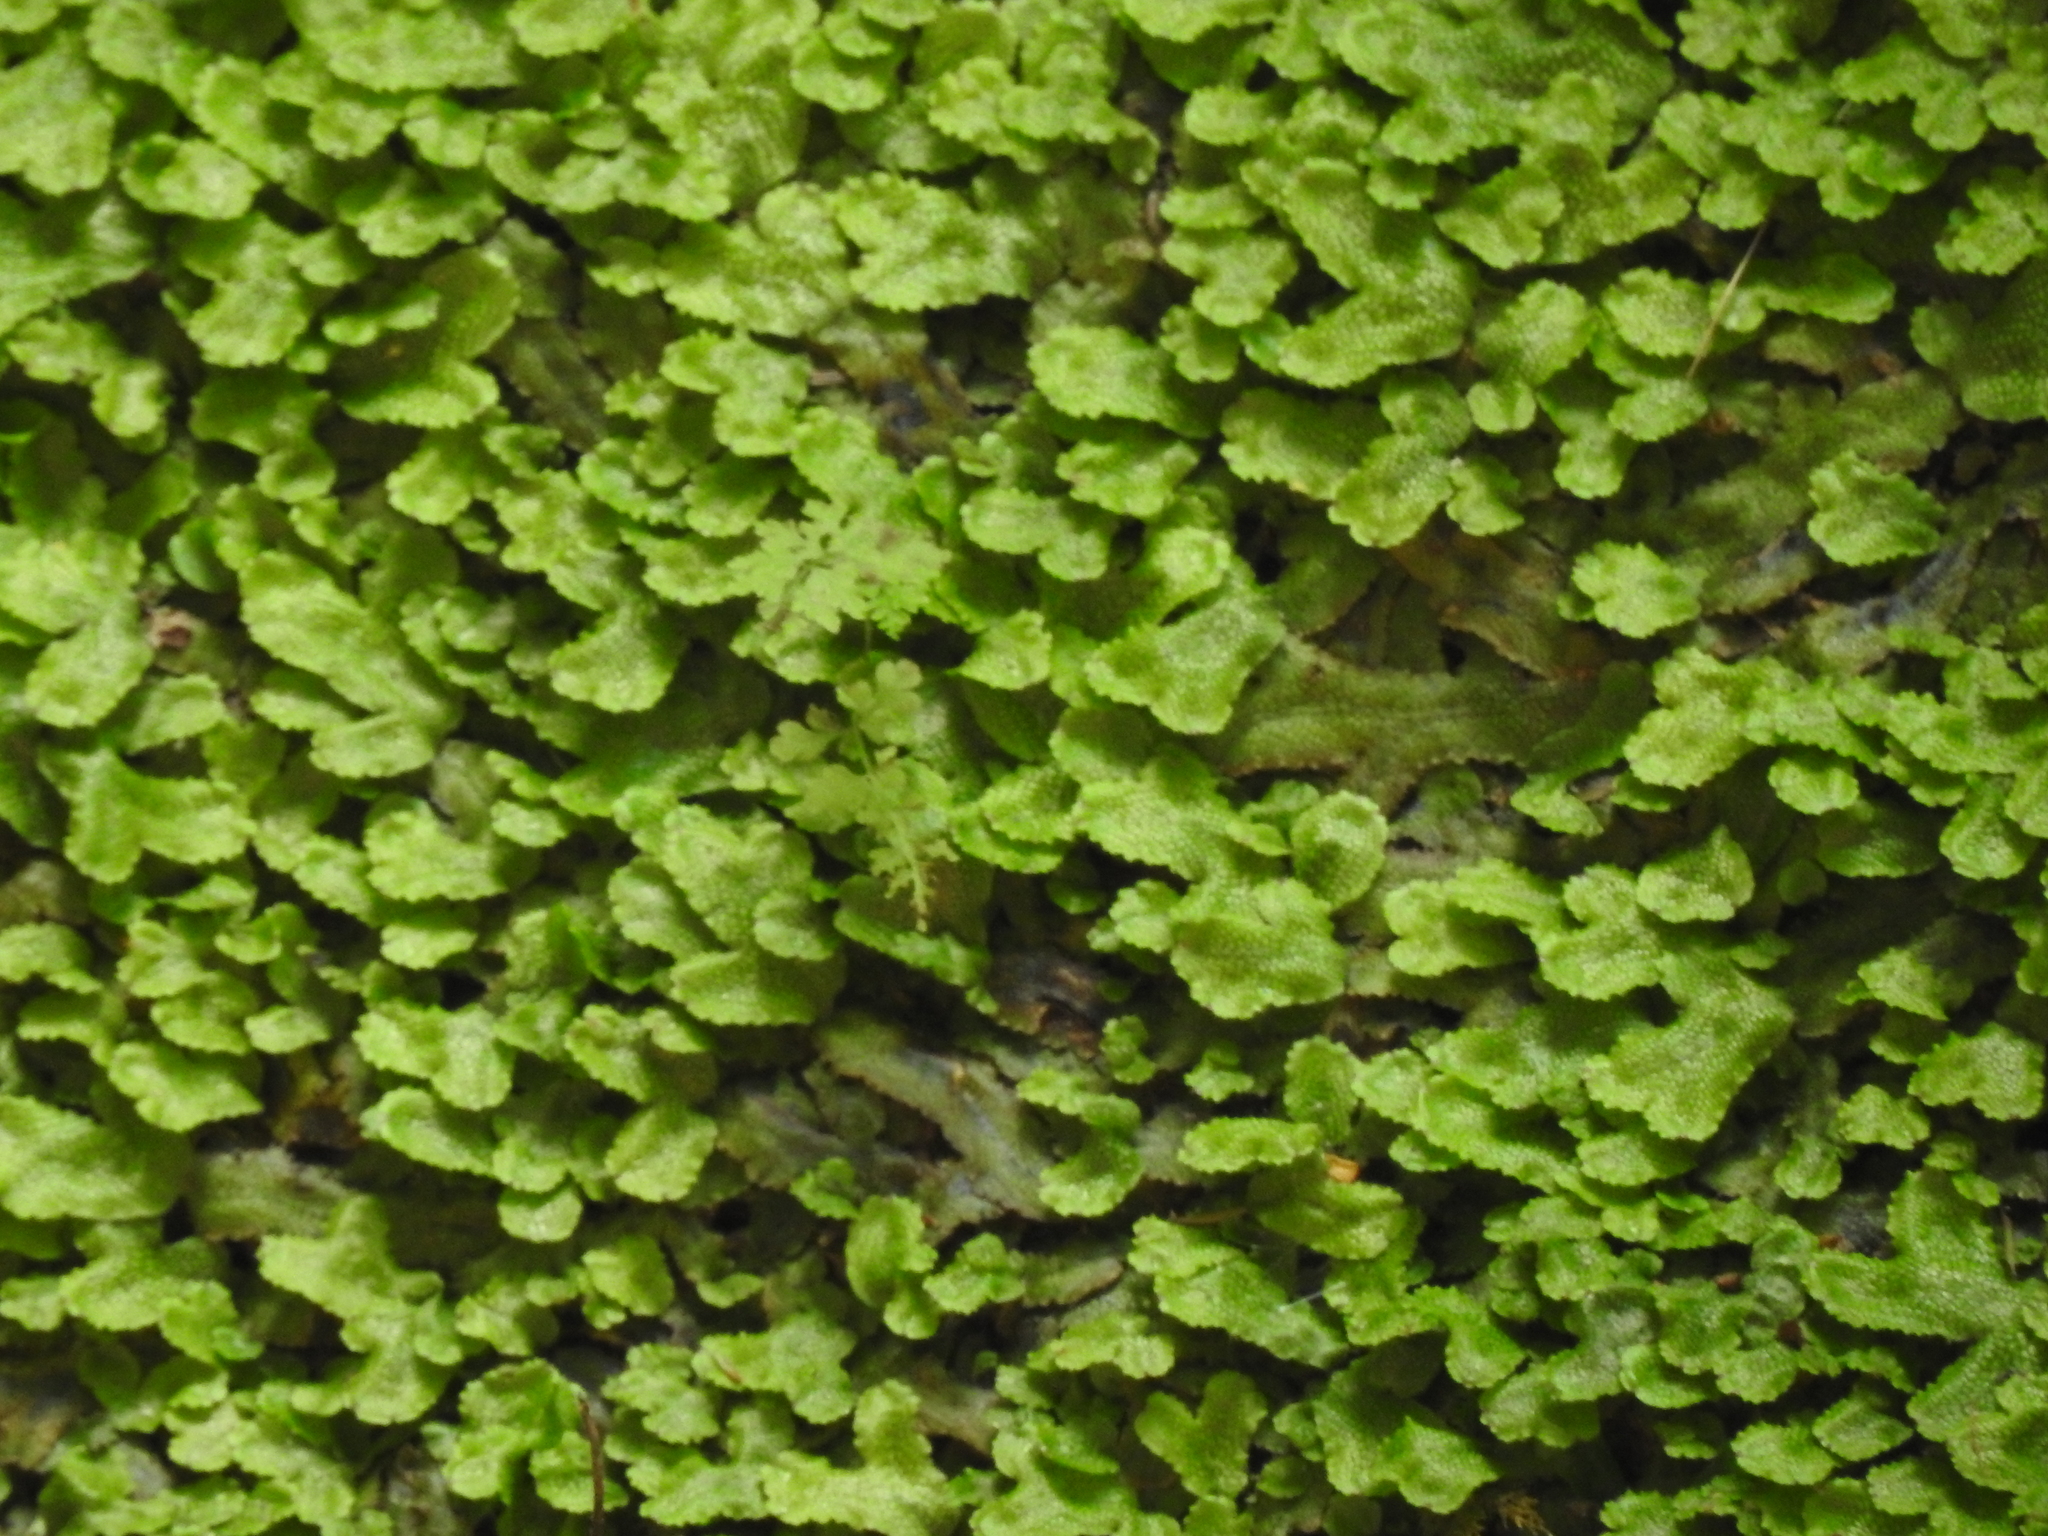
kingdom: Plantae
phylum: Marchantiophyta
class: Marchantiopsida
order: Marchantiales
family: Conocephalaceae
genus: Conocephalum
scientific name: Conocephalum salebrosum
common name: Cat-tongue liverwort
